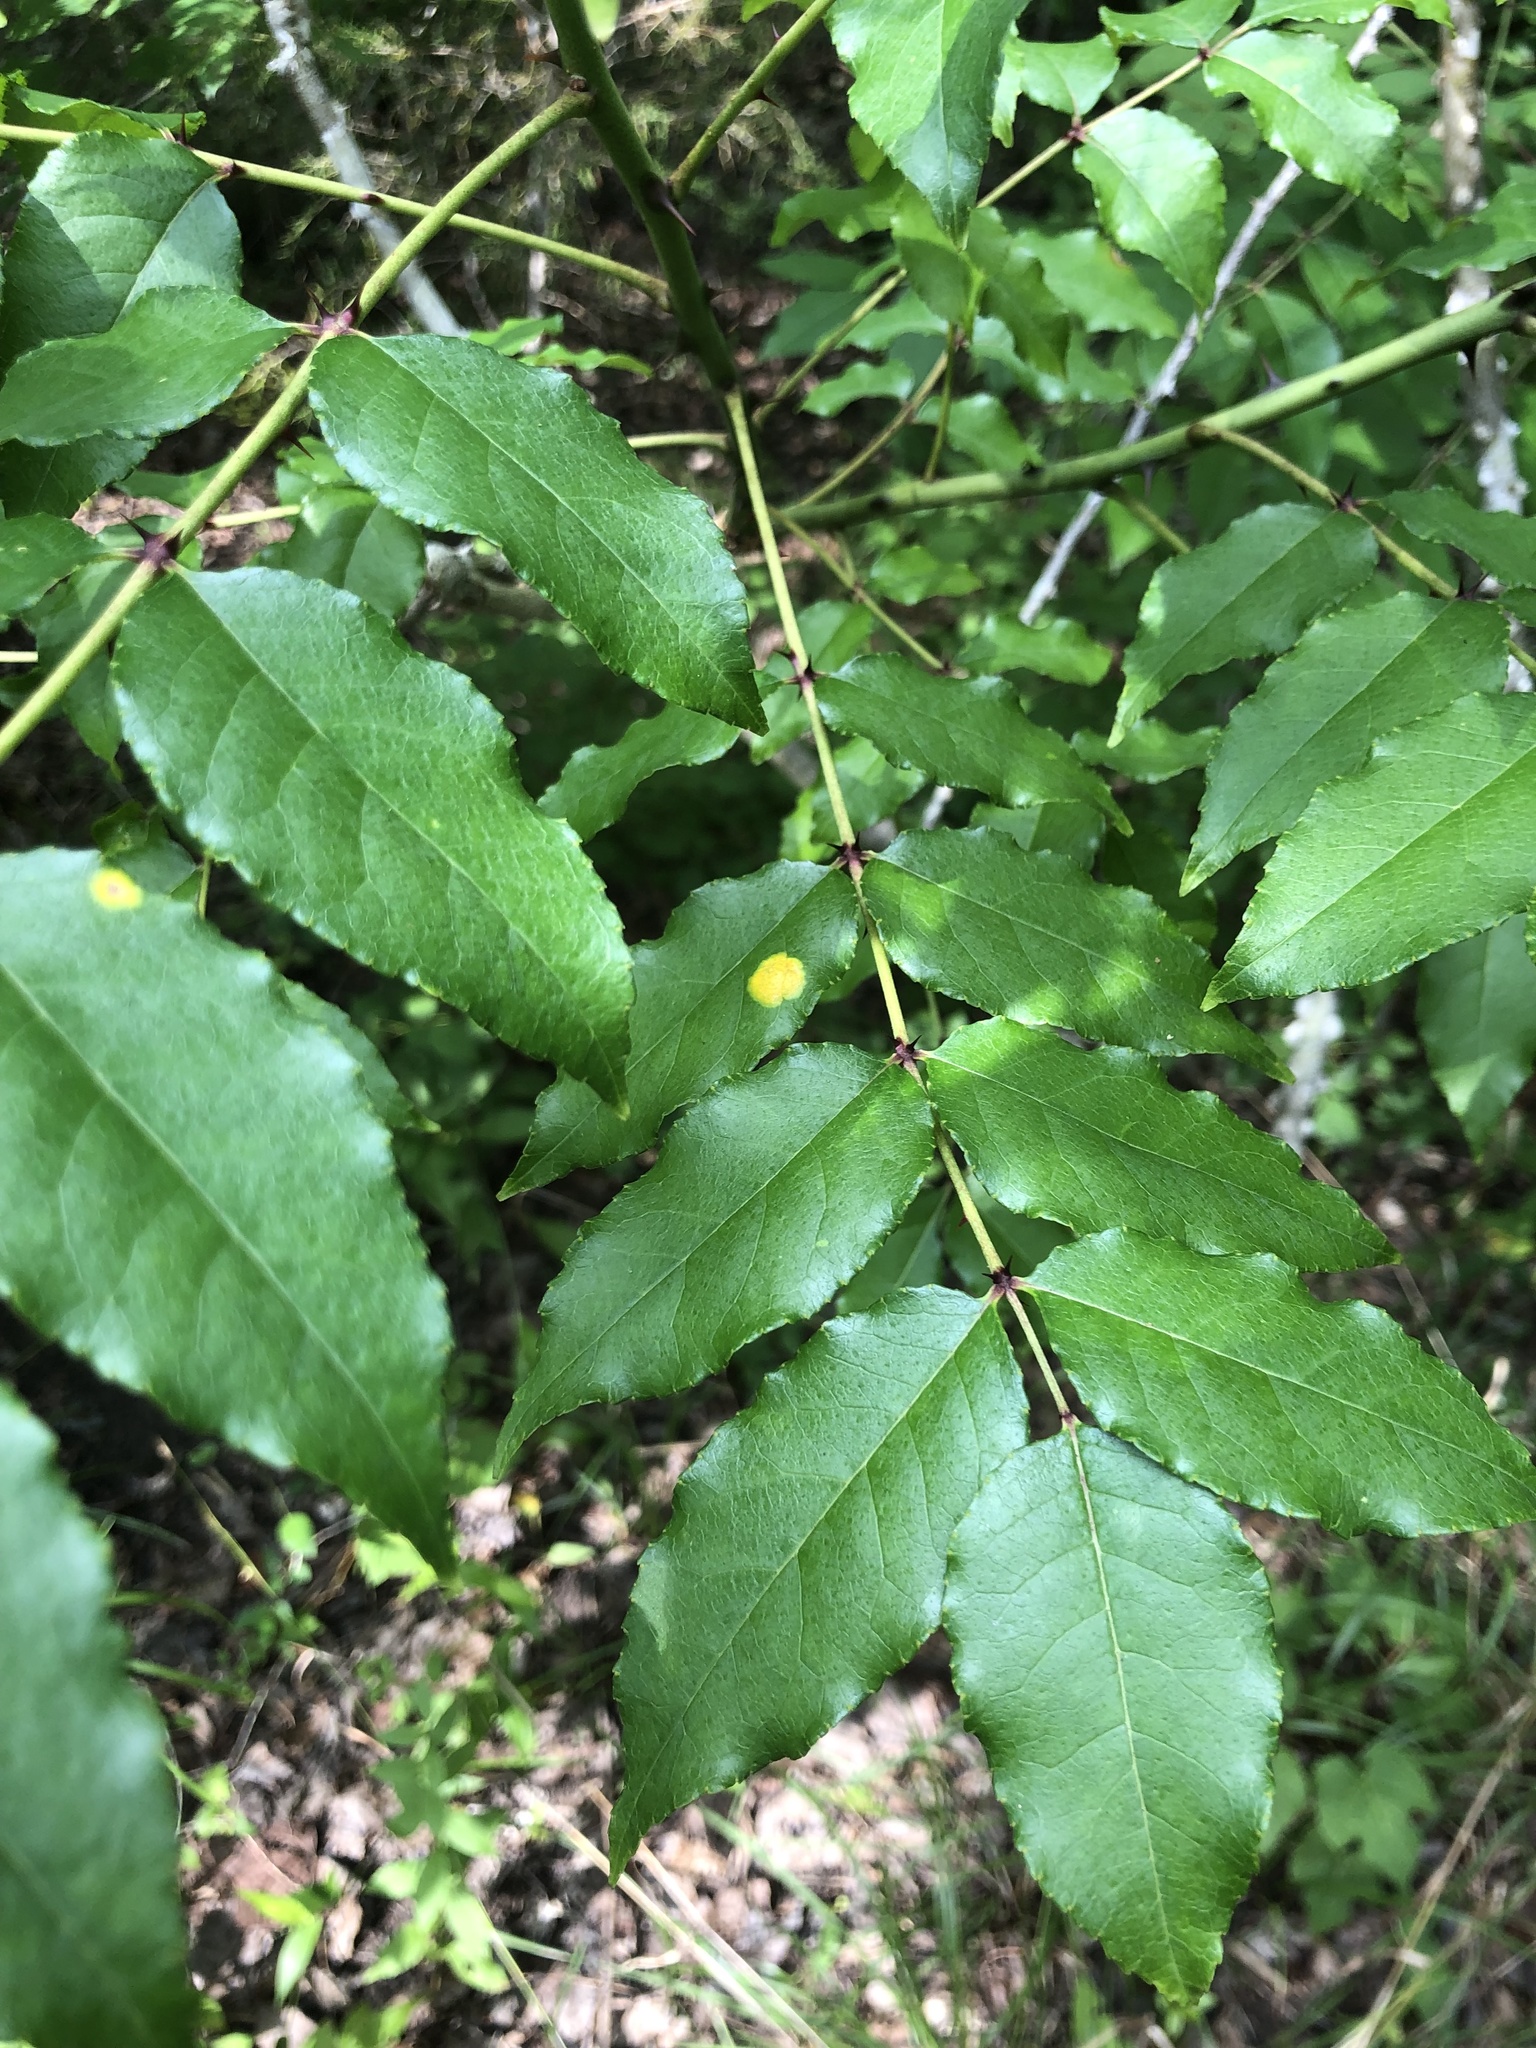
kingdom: Plantae
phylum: Tracheophyta
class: Magnoliopsida
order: Sapindales
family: Rutaceae
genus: Zanthoxylum
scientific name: Zanthoxylum clava-herculis
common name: Hercules'-club
